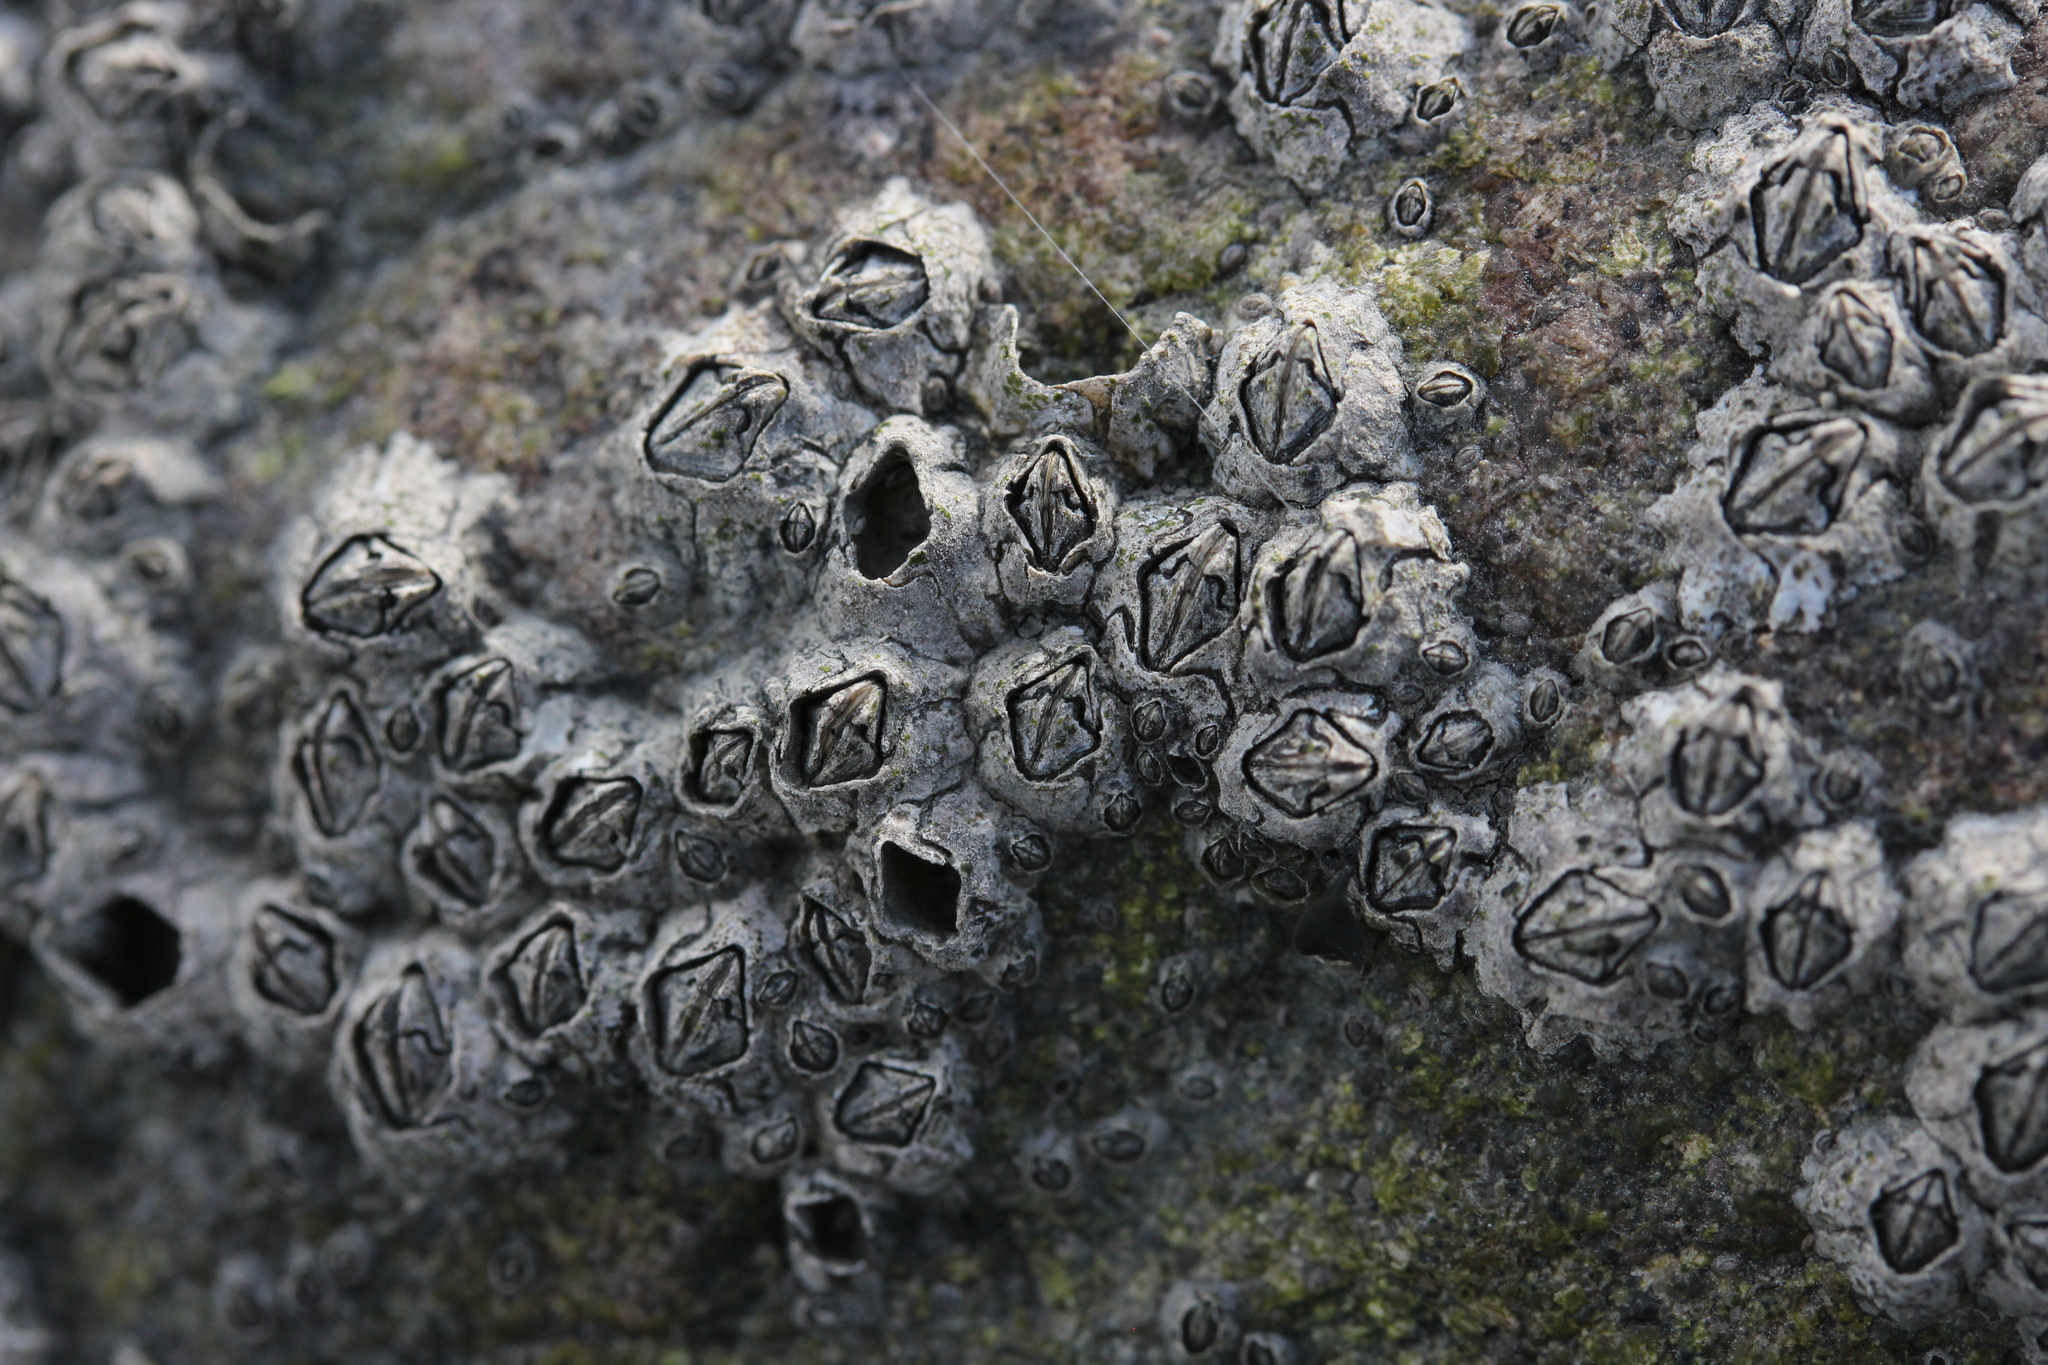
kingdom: Animalia
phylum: Arthropoda
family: Elminiidae
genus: Austrominius
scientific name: Austrominius modestus
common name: Australasian barnacle
